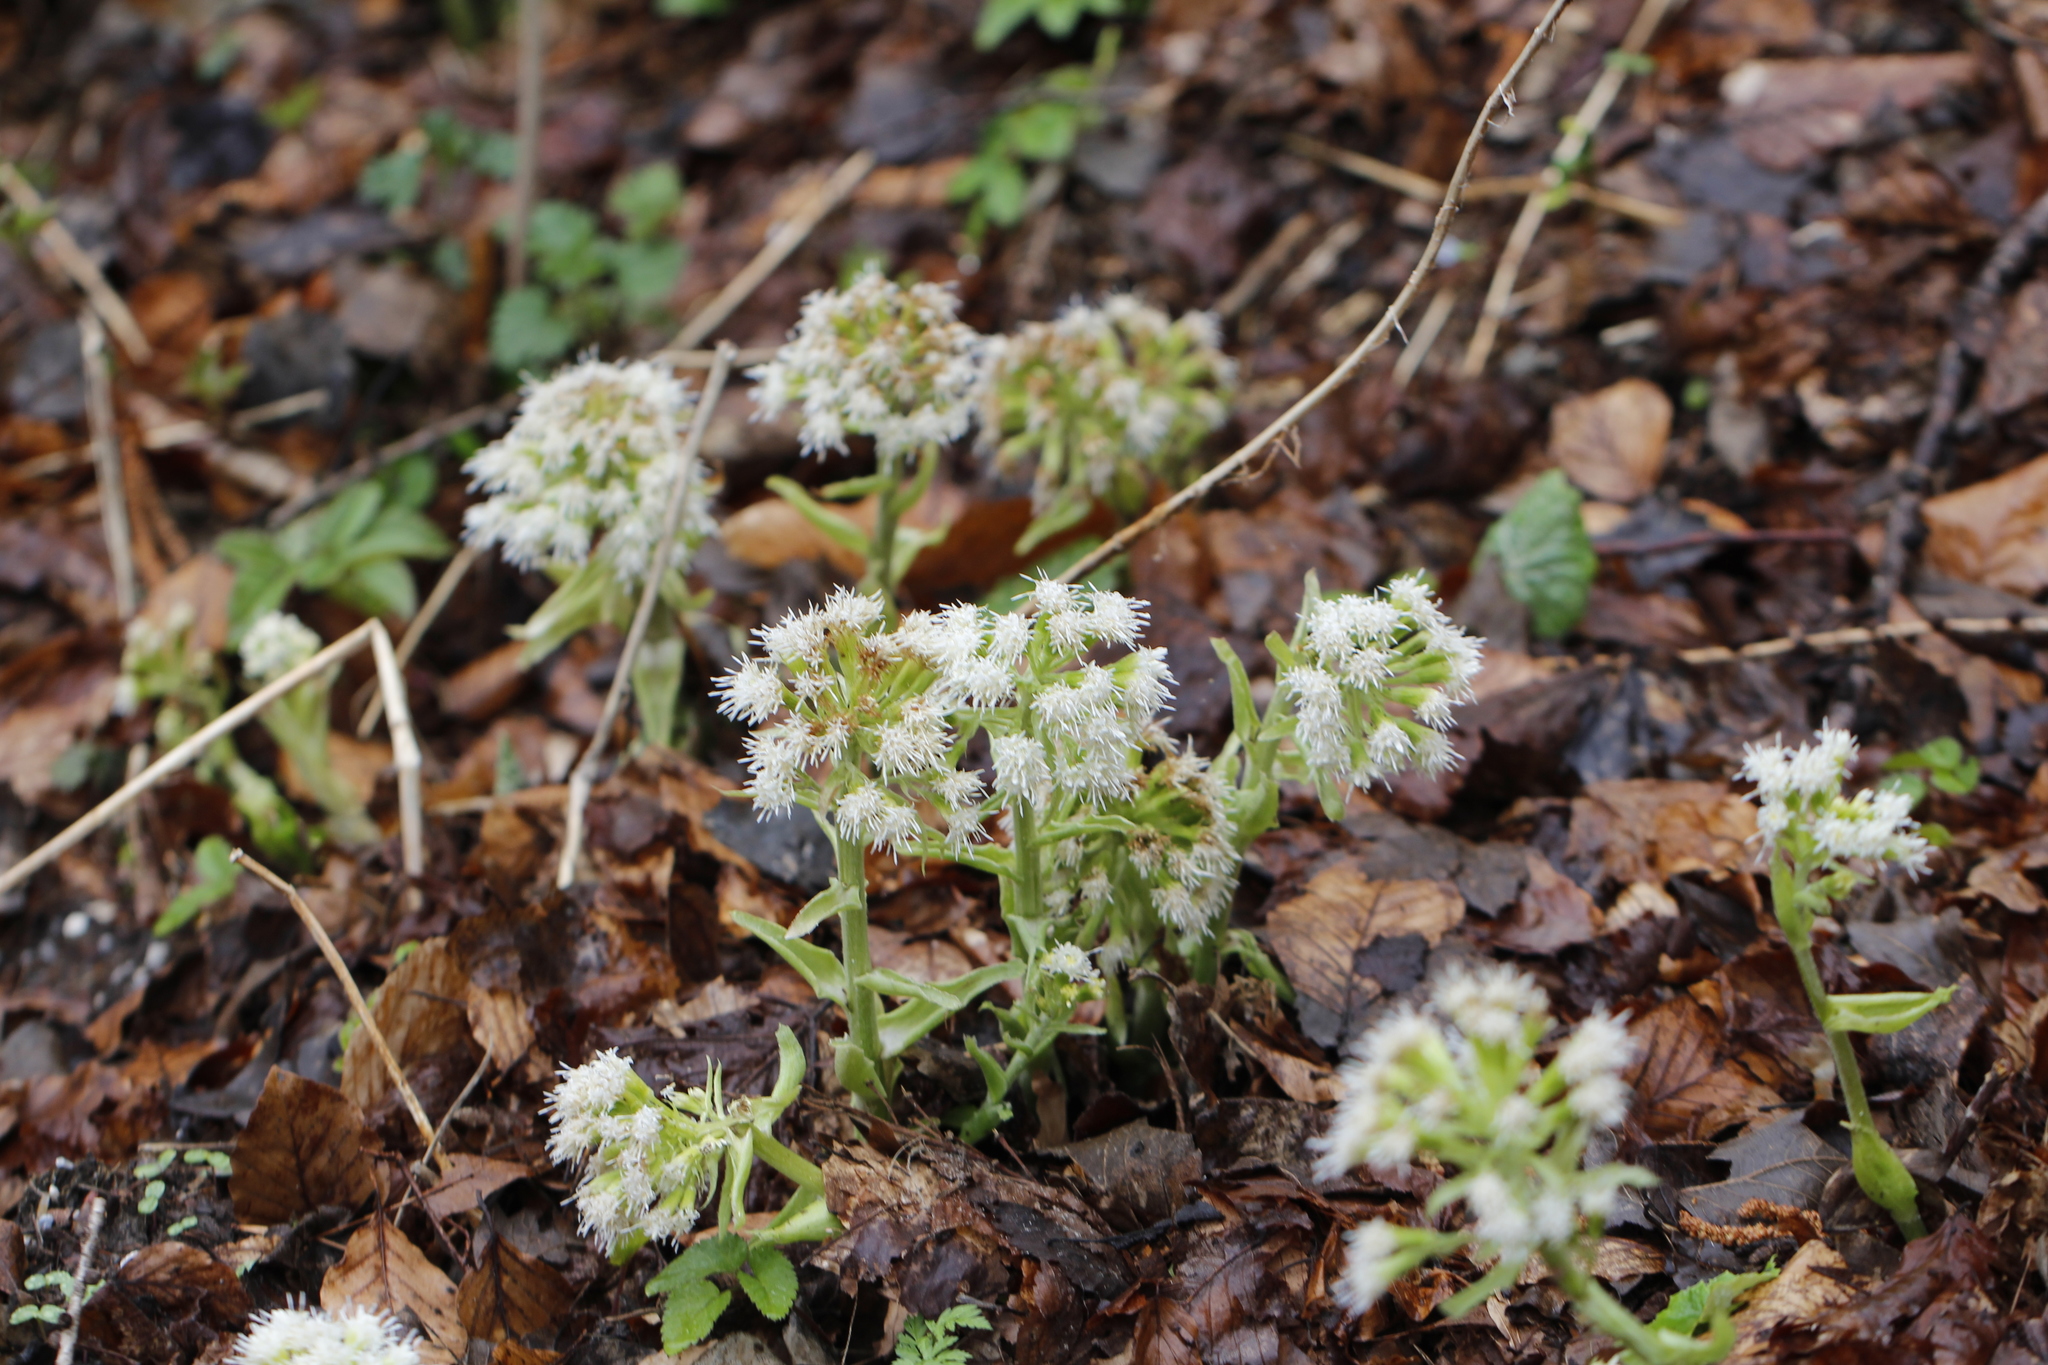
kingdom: Plantae
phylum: Tracheophyta
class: Magnoliopsida
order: Asterales
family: Asteraceae
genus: Petasites
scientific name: Petasites albus
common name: White butterbur
